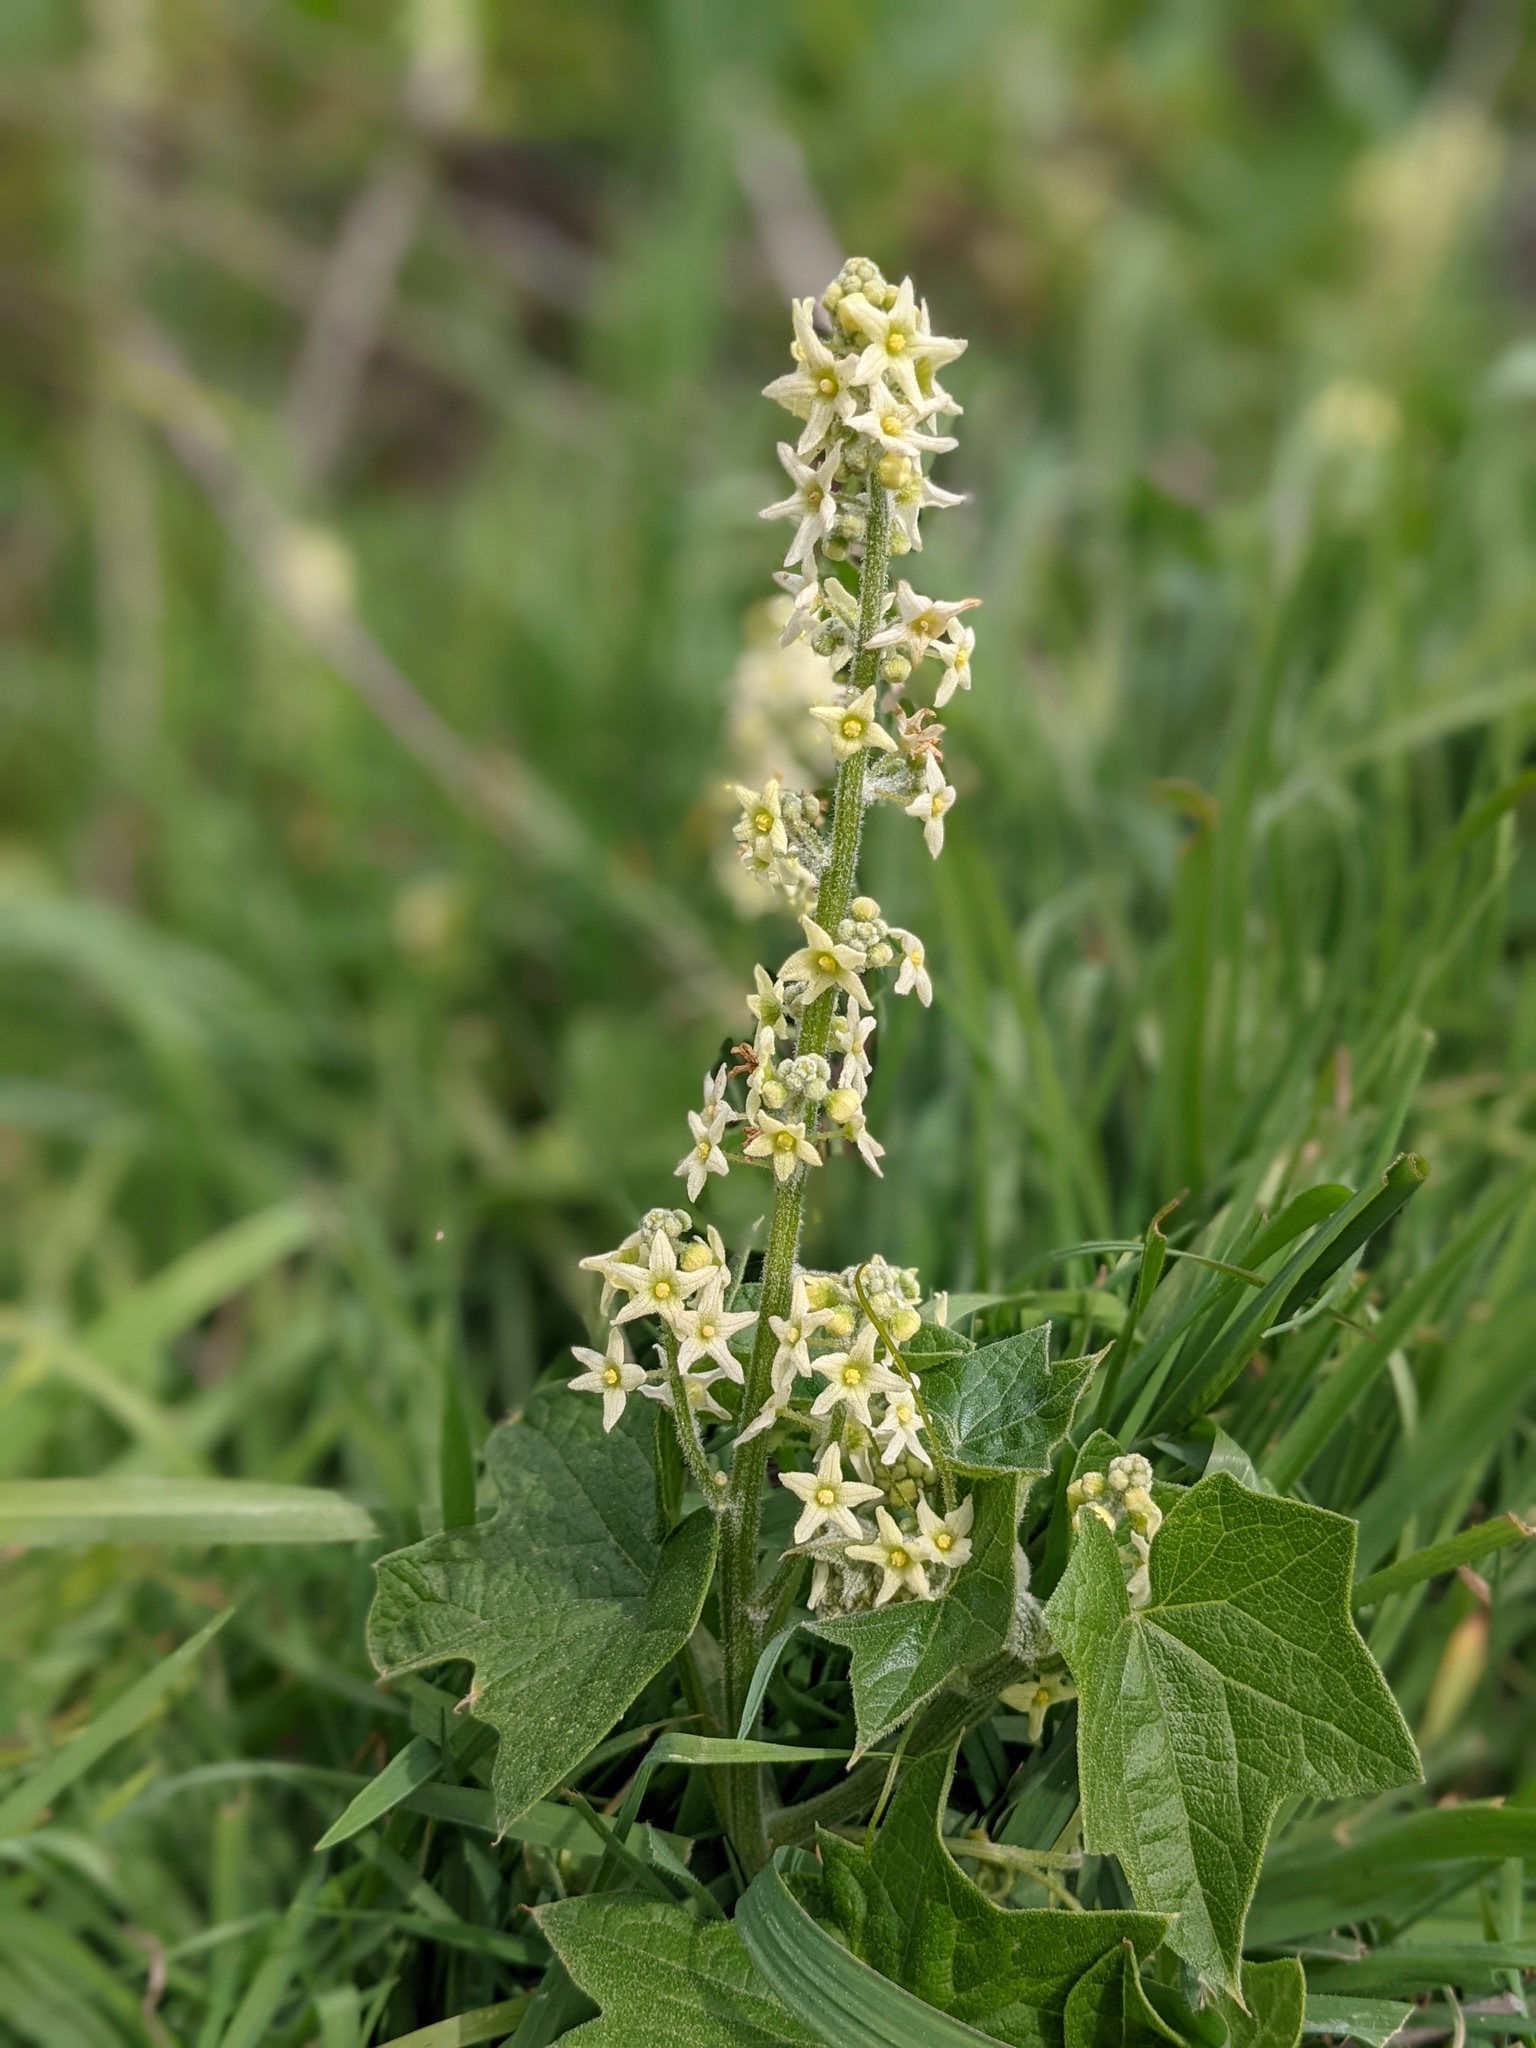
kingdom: Plantae
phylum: Tracheophyta
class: Magnoliopsida
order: Cucurbitales
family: Cucurbitaceae
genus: Marah
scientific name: Marah fabacea
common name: California manroot
